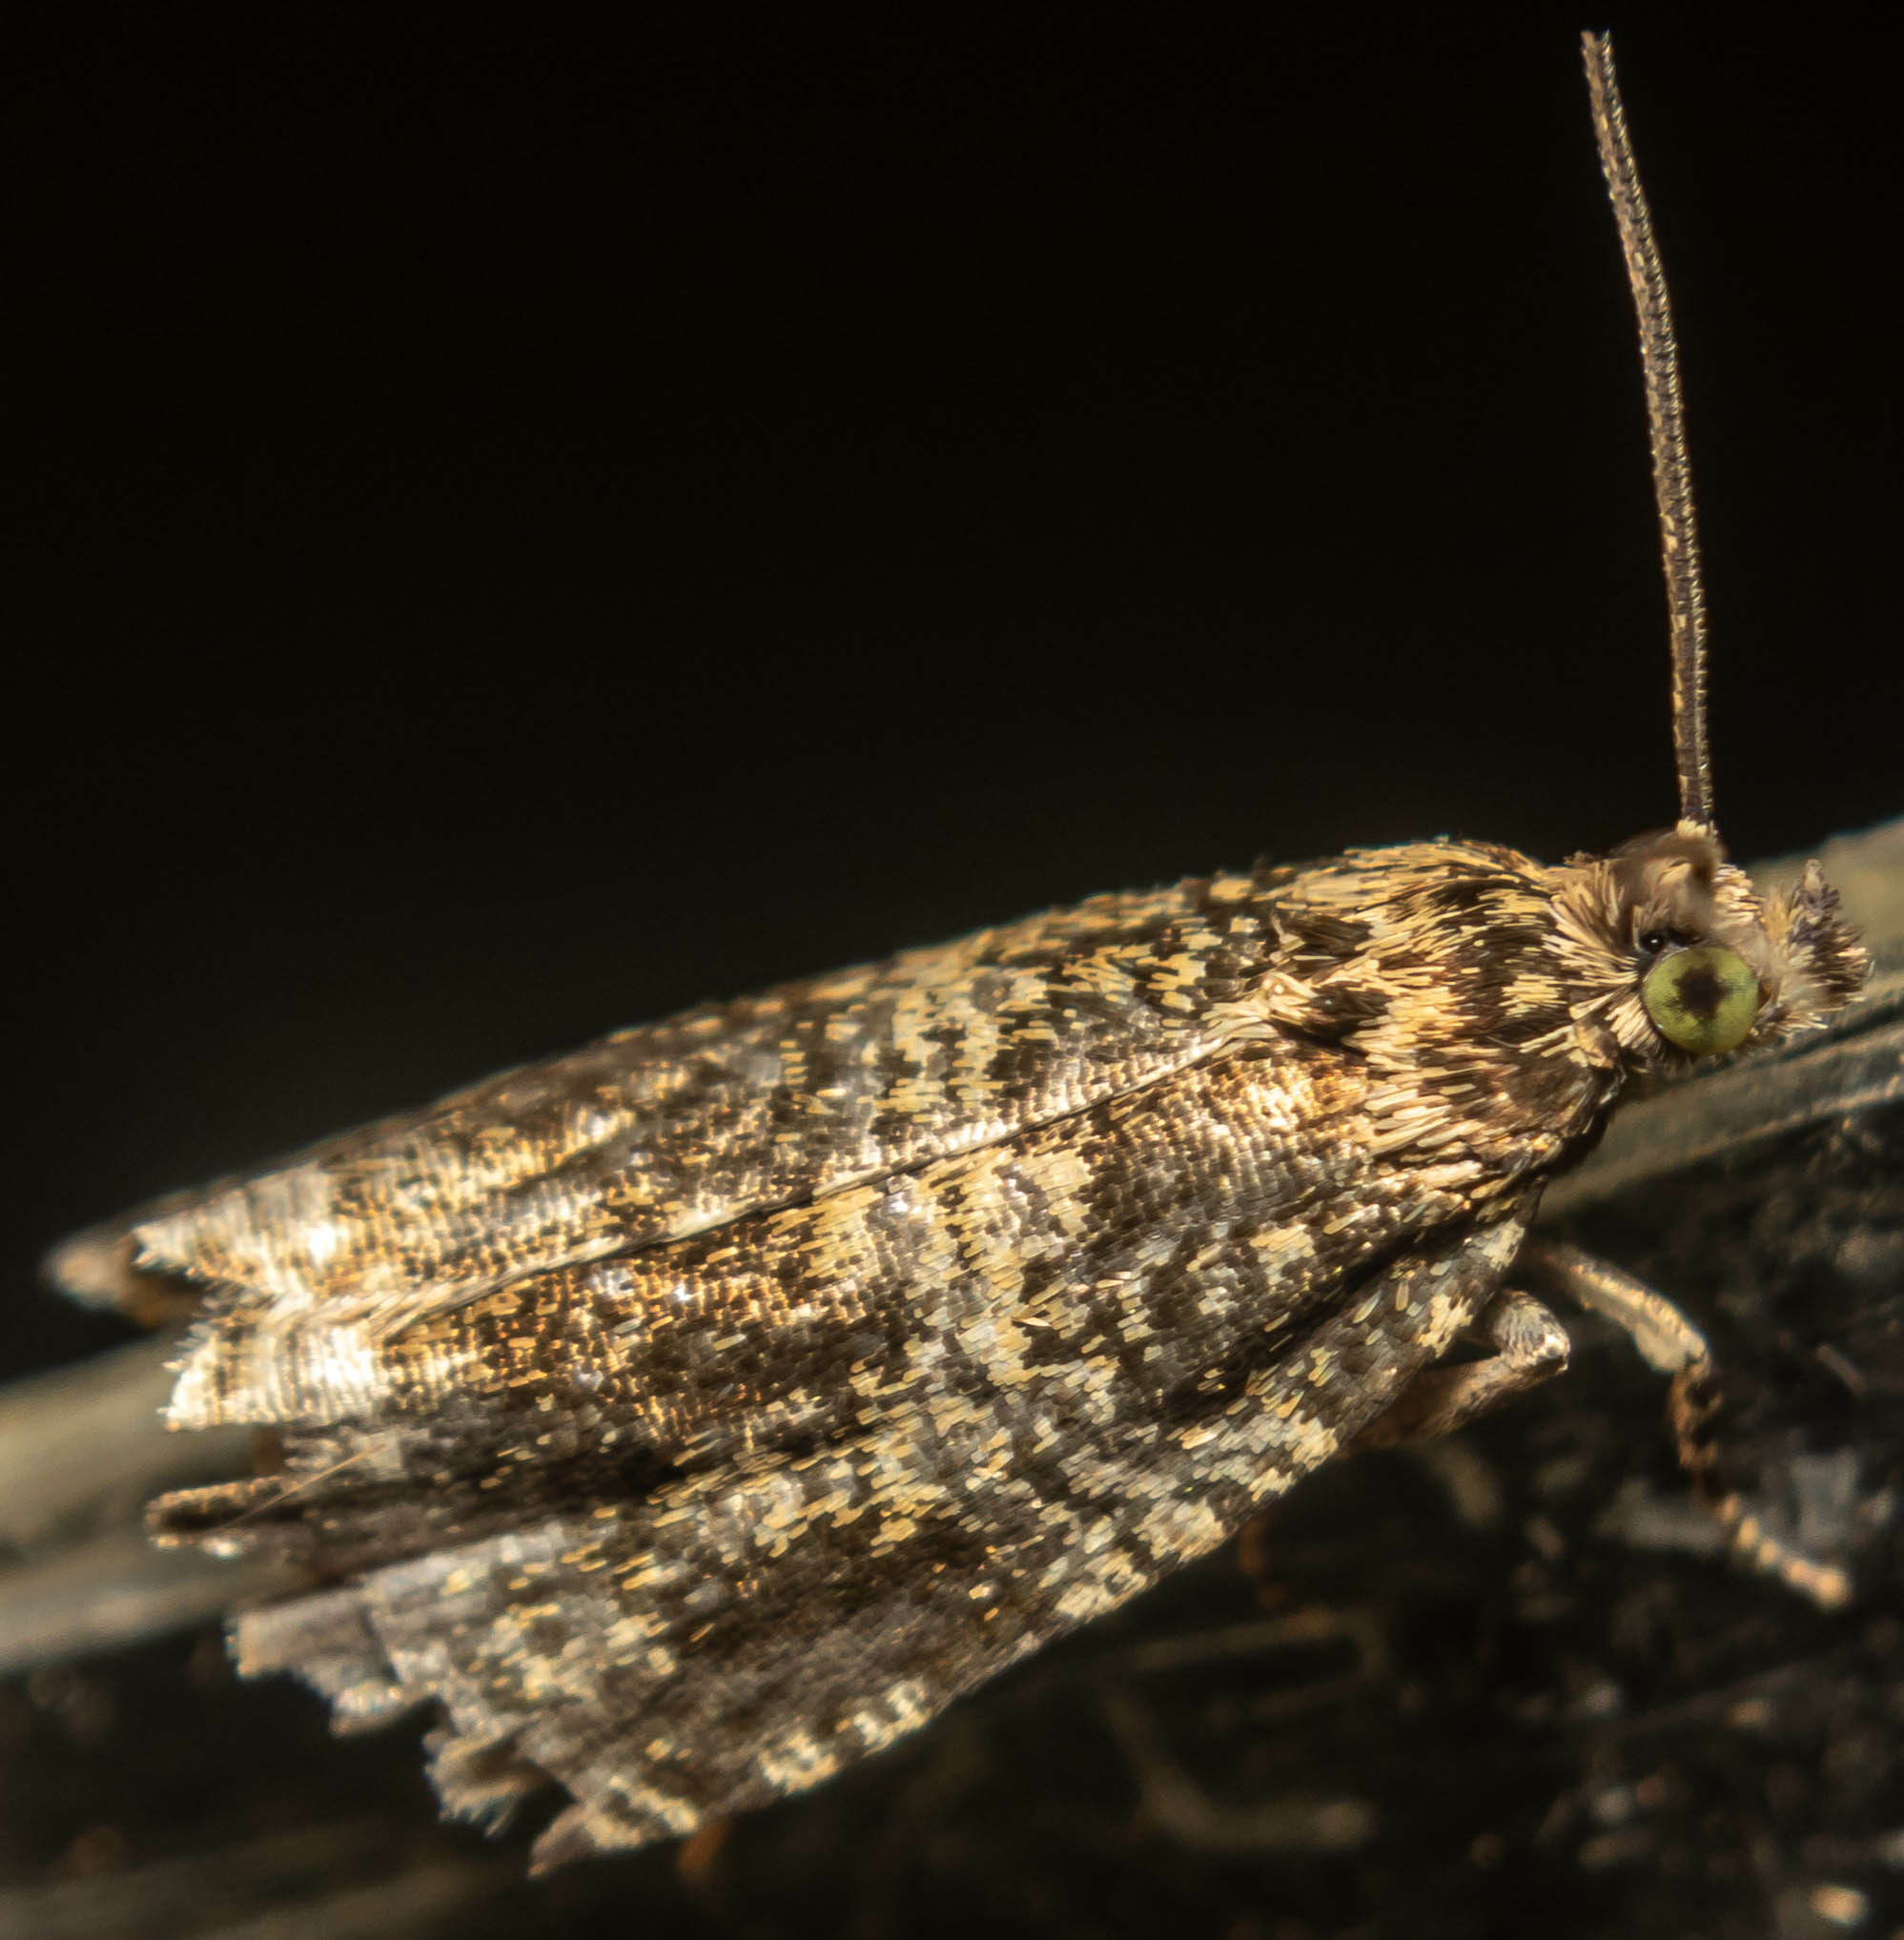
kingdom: Animalia
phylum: Arthropoda
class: Insecta
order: Lepidoptera
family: Tortricidae
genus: Syricoris
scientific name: Syricoris lacunana
